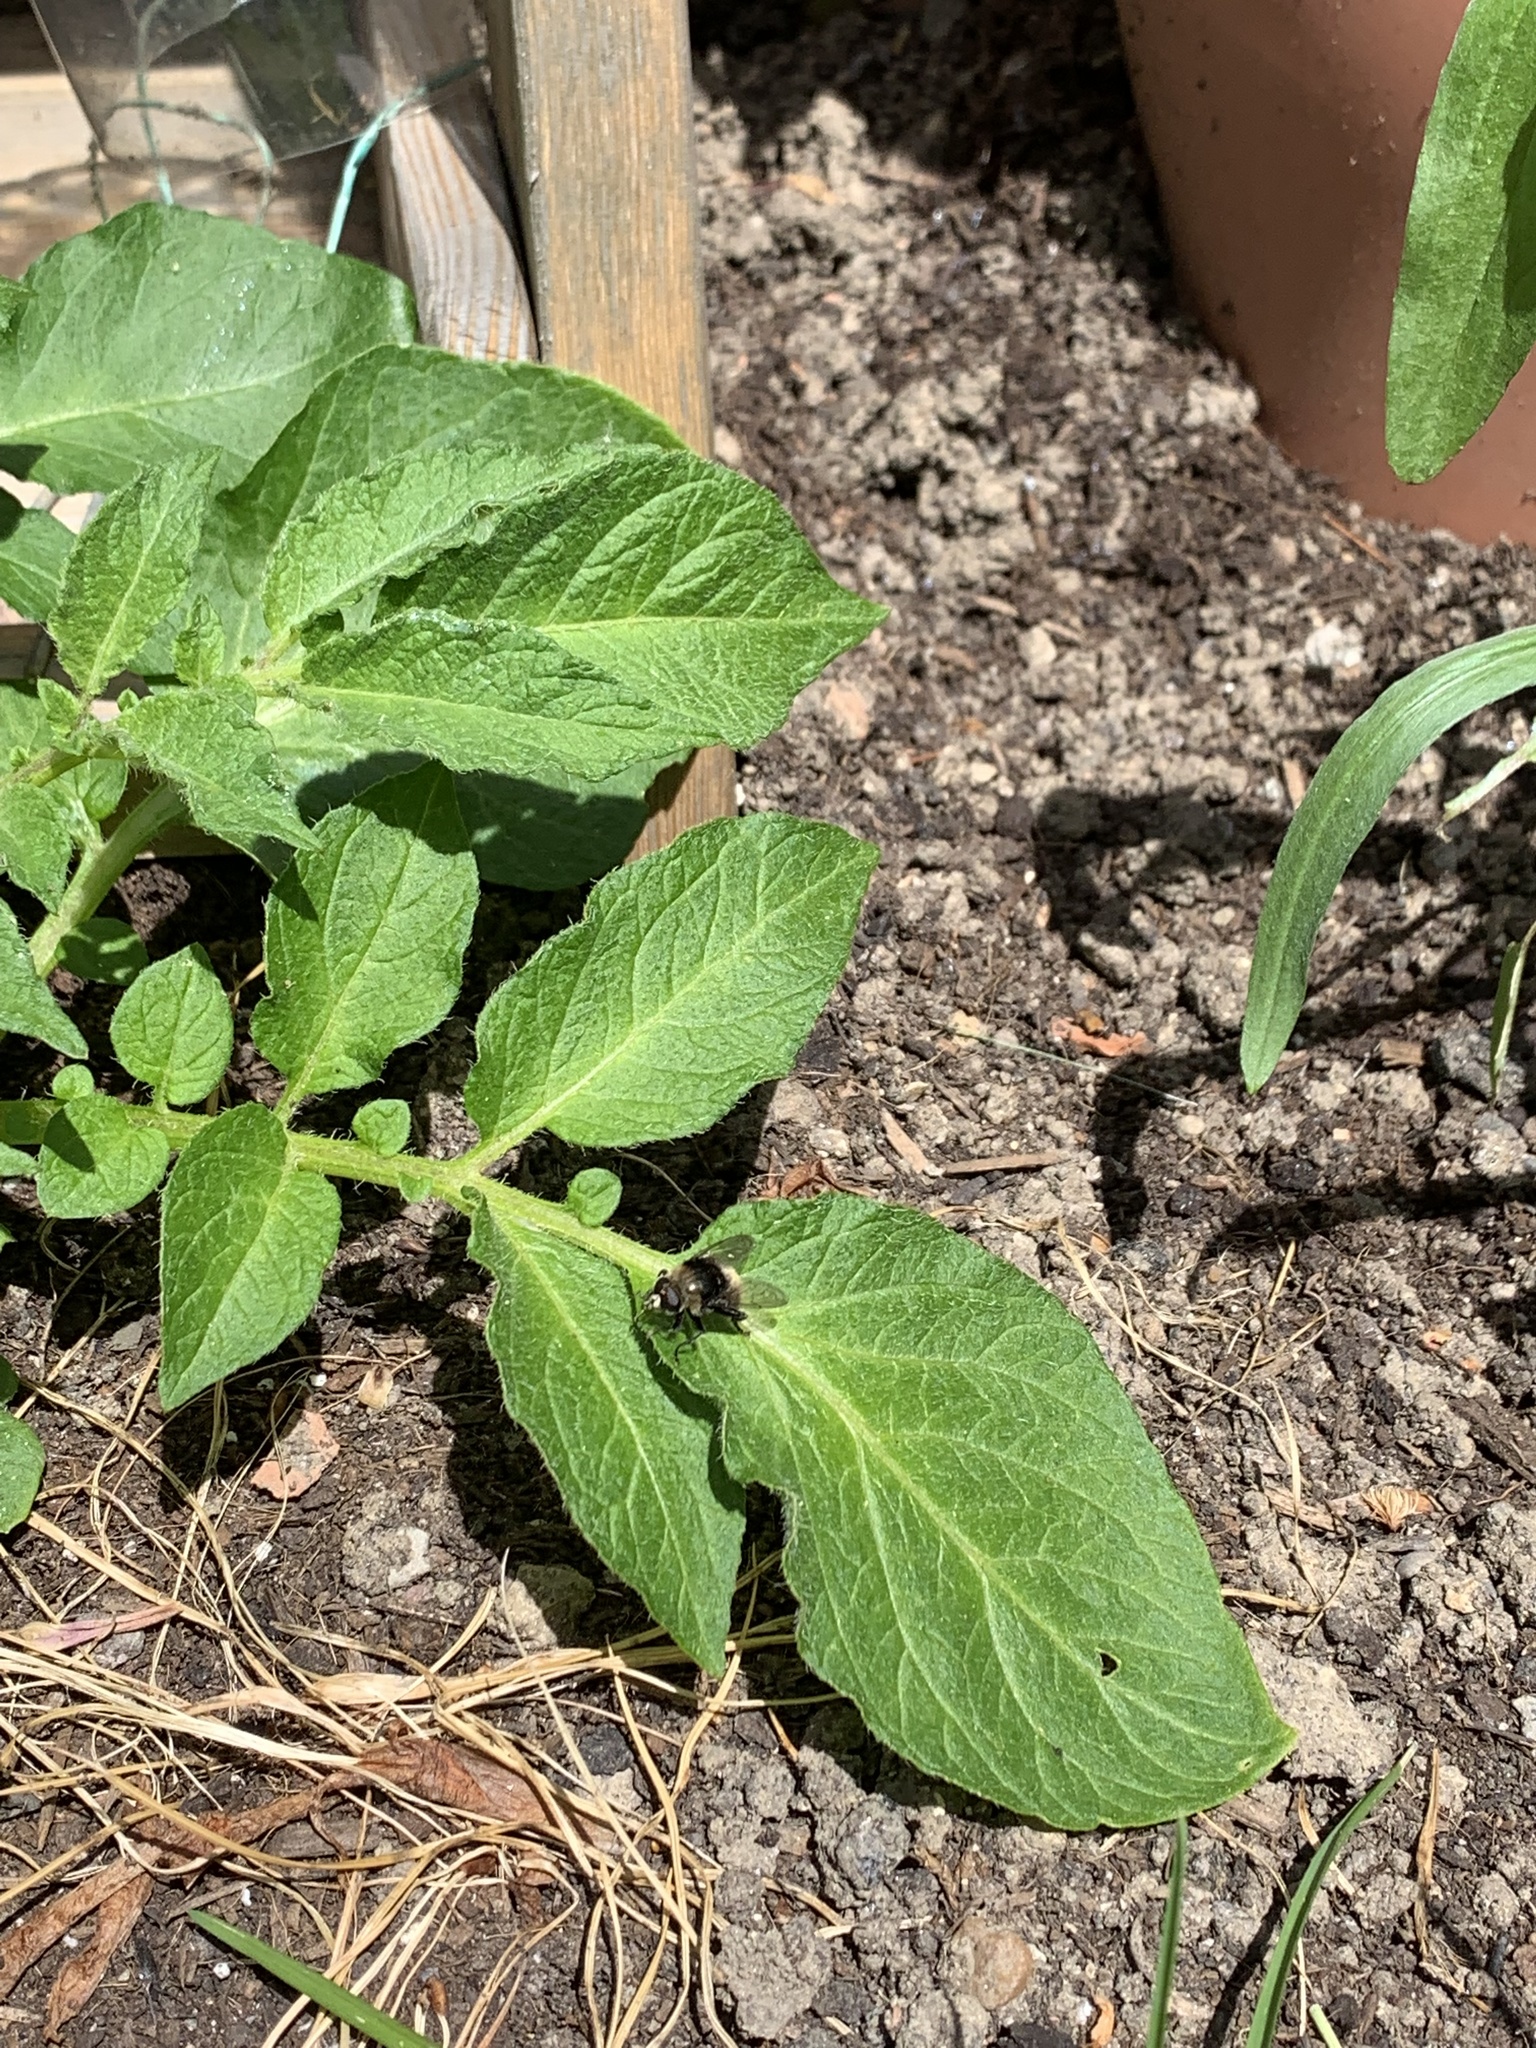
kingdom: Animalia
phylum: Arthropoda
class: Insecta
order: Diptera
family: Syrphidae
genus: Merodon
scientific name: Merodon equestris
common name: Greater bulb-fly
